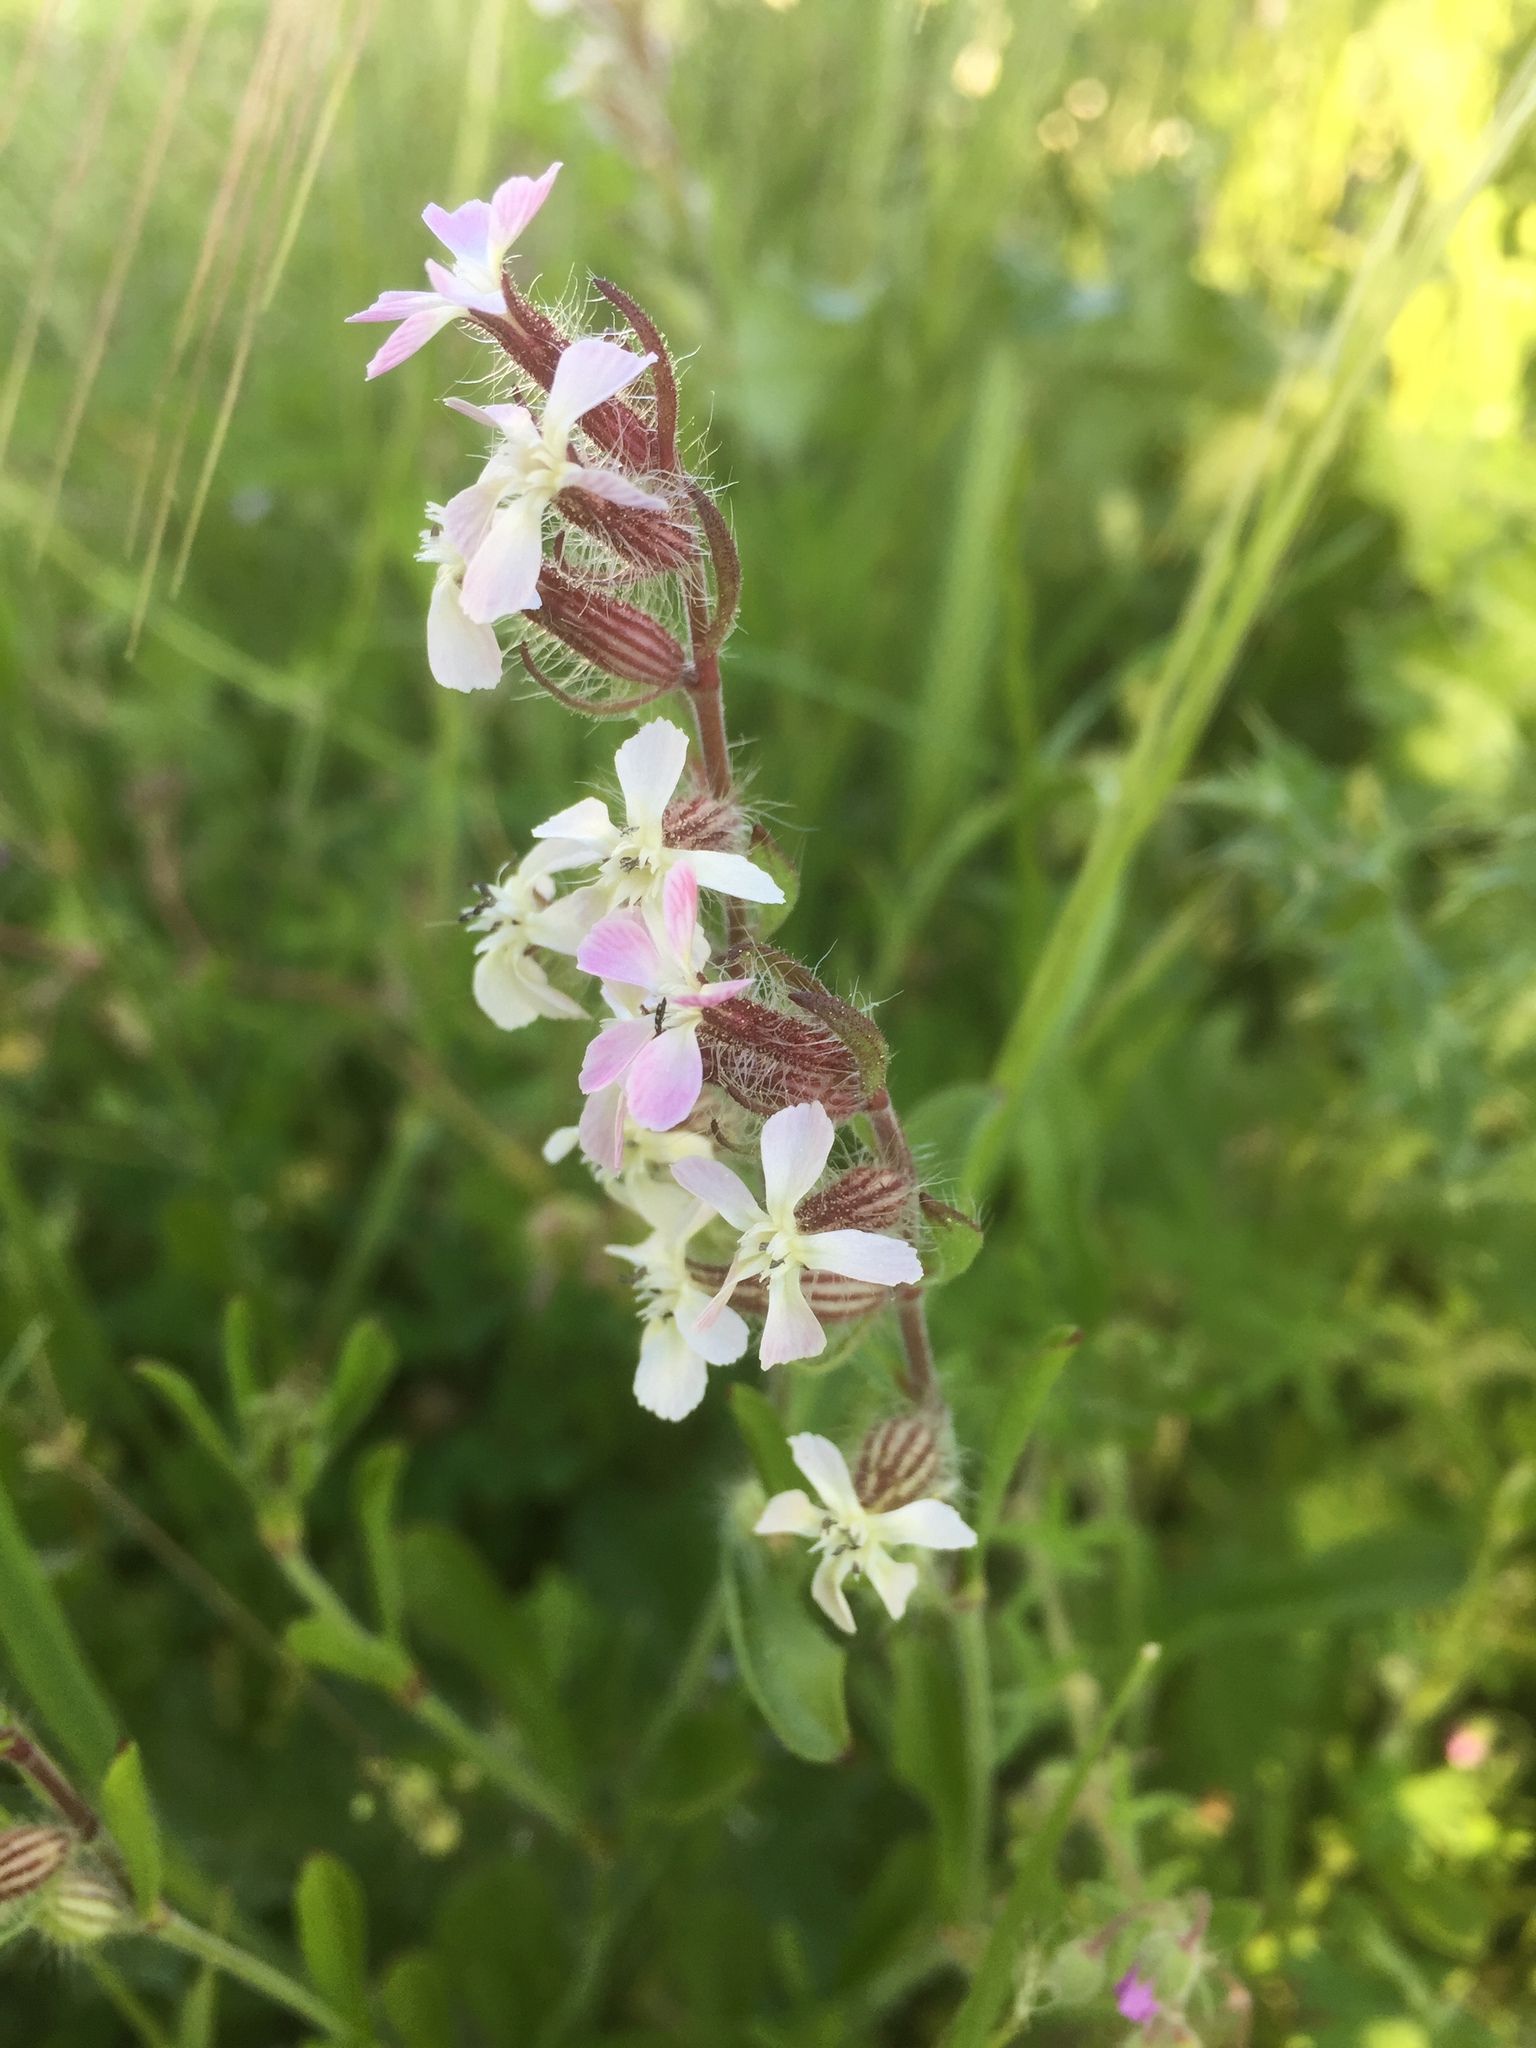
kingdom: Plantae
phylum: Tracheophyta
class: Magnoliopsida
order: Caryophyllales
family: Caryophyllaceae
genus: Silene
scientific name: Silene gallica
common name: Small-flowered catchfly
